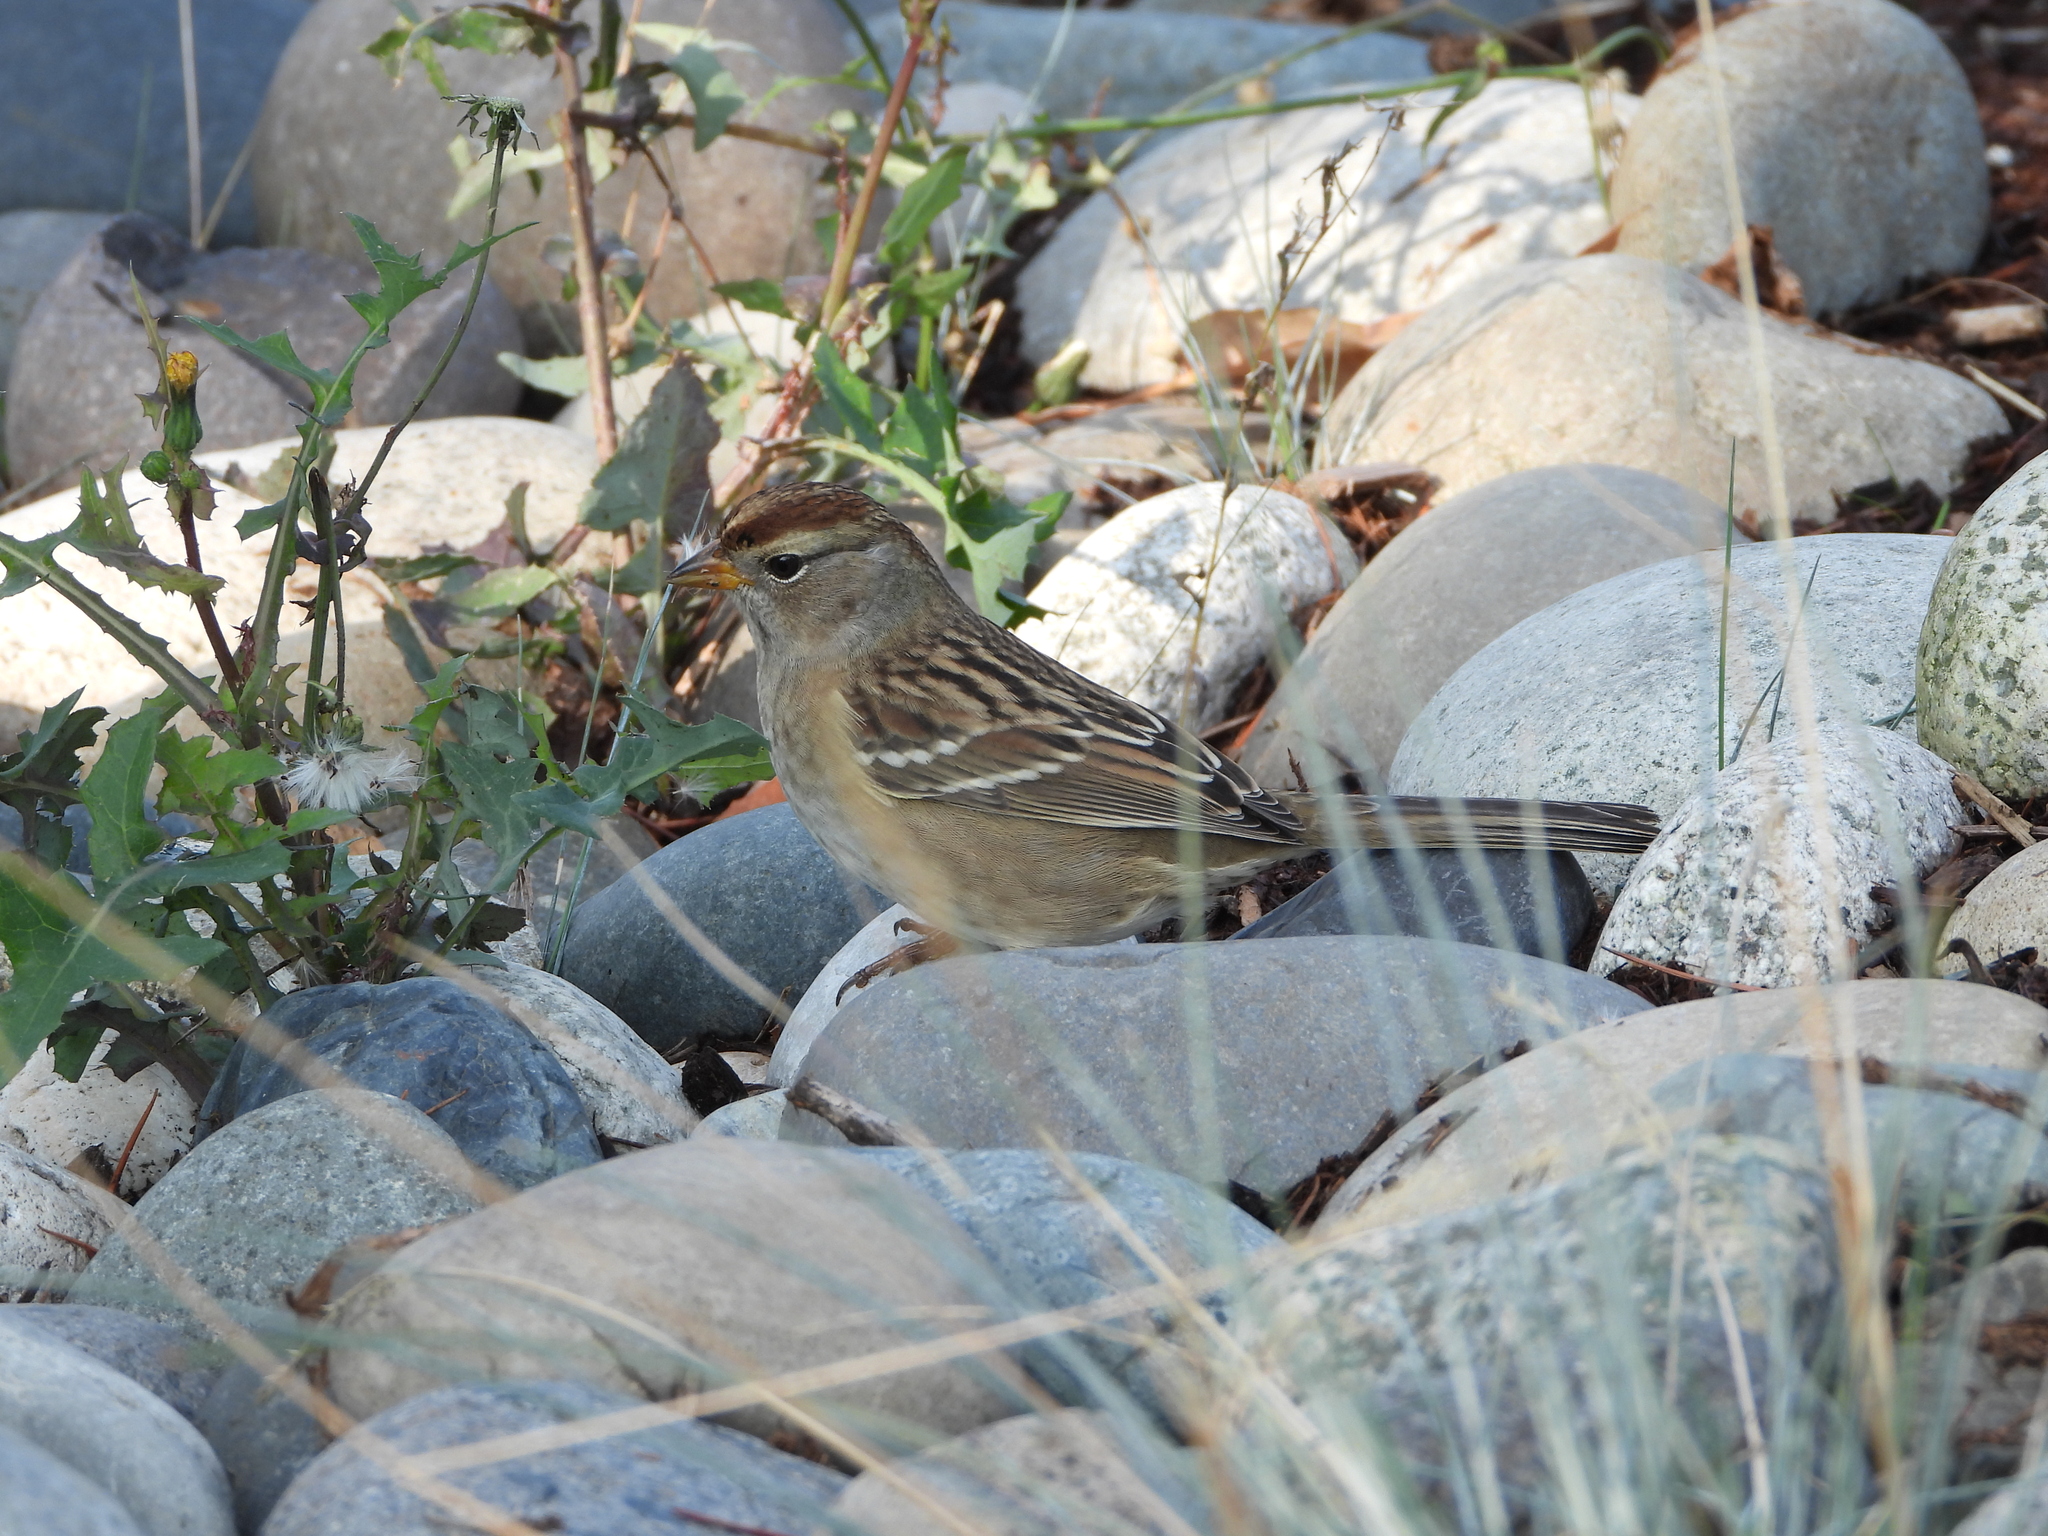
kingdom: Animalia
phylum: Chordata
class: Aves
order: Passeriformes
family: Passerellidae
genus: Zonotrichia
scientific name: Zonotrichia leucophrys
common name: White-crowned sparrow
